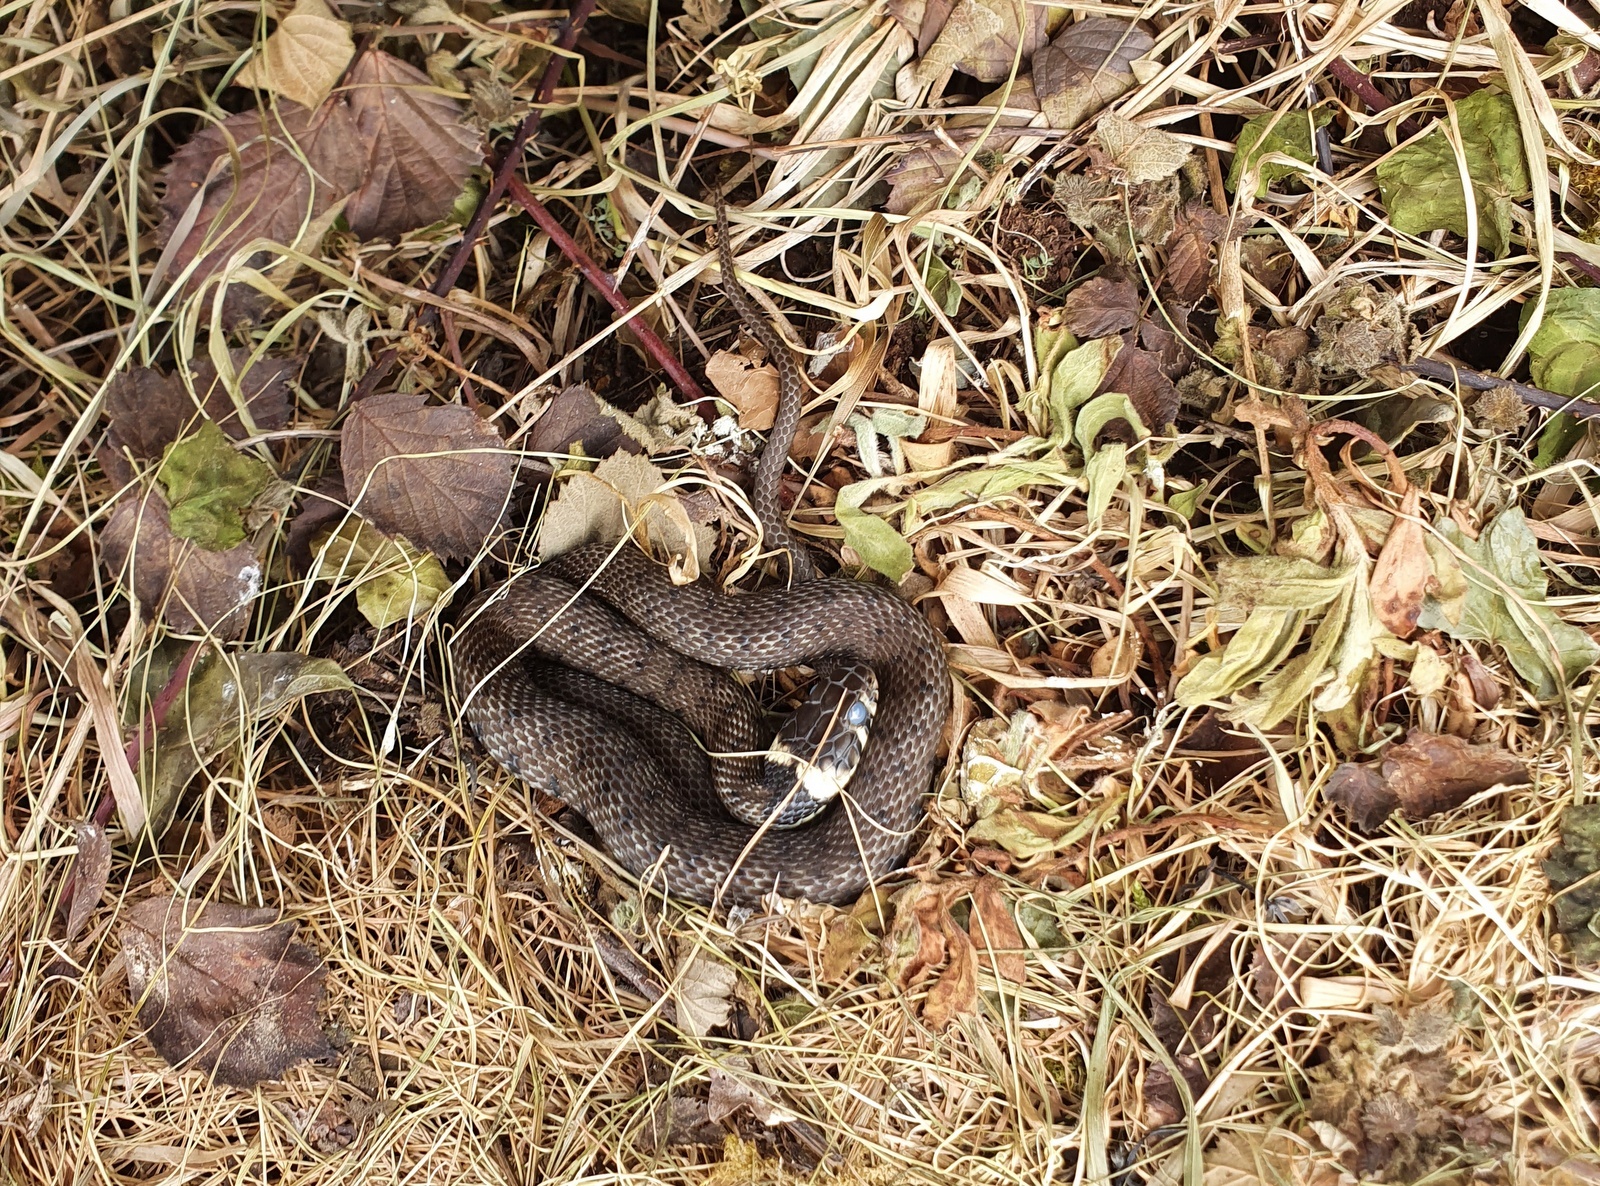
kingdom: Animalia
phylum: Chordata
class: Squamata
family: Colubridae
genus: Natrix
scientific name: Natrix helvetica
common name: Banded grass snake
